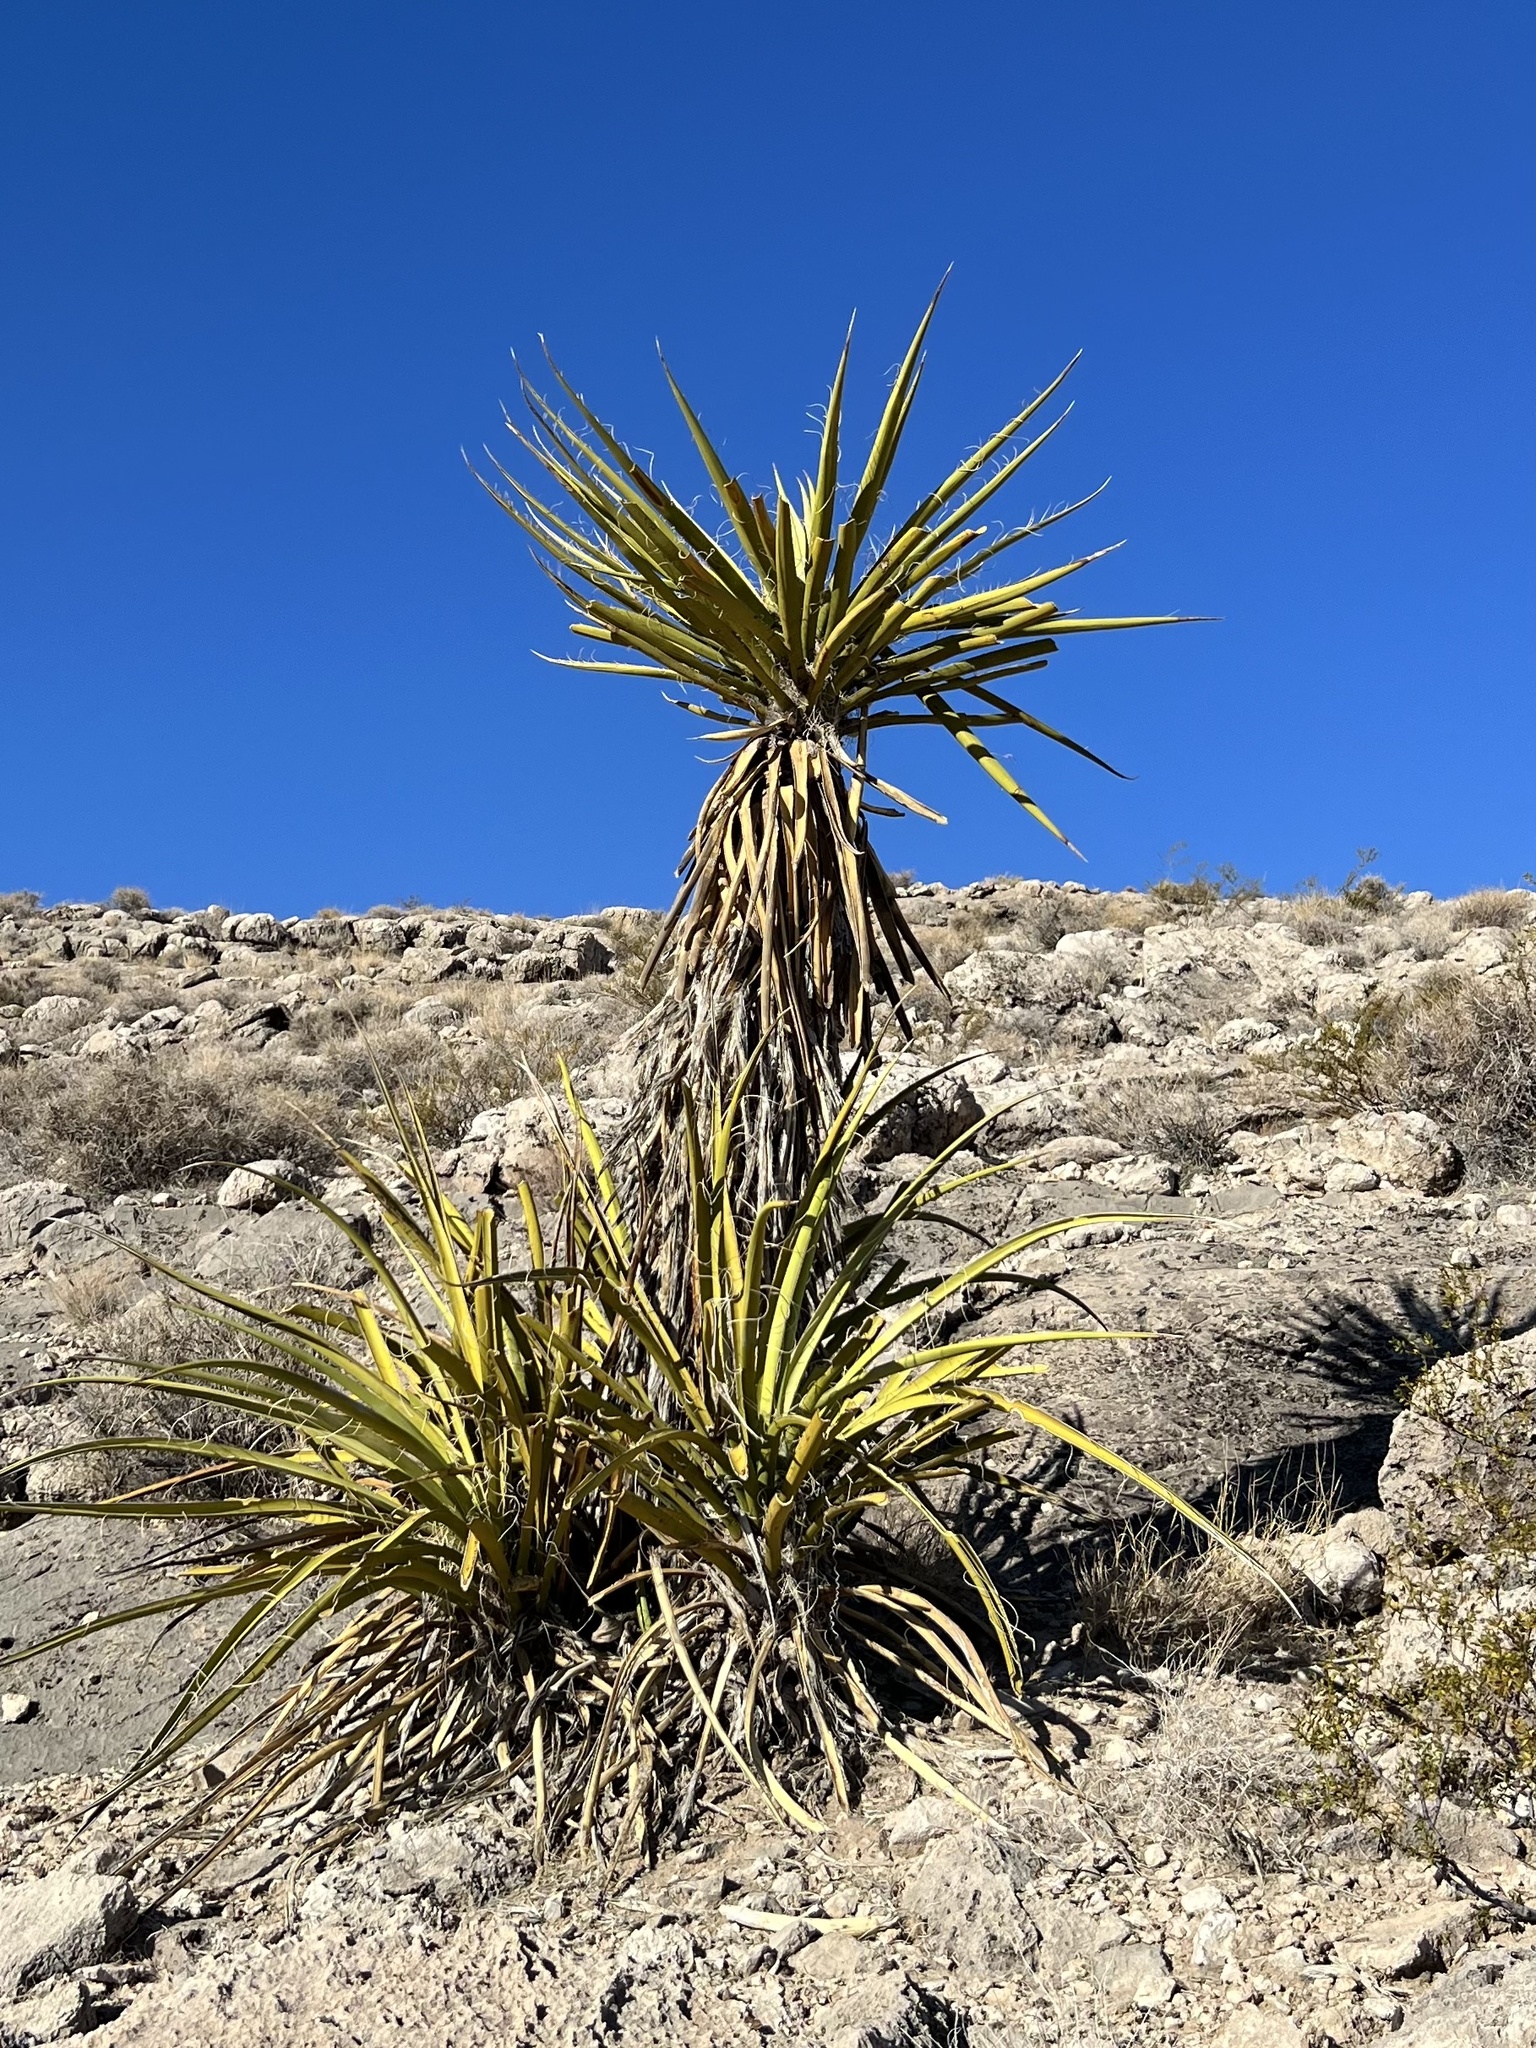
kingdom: Plantae
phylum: Tracheophyta
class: Liliopsida
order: Asparagales
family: Asparagaceae
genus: Yucca
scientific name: Yucca schidigera
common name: Mojave yucca
